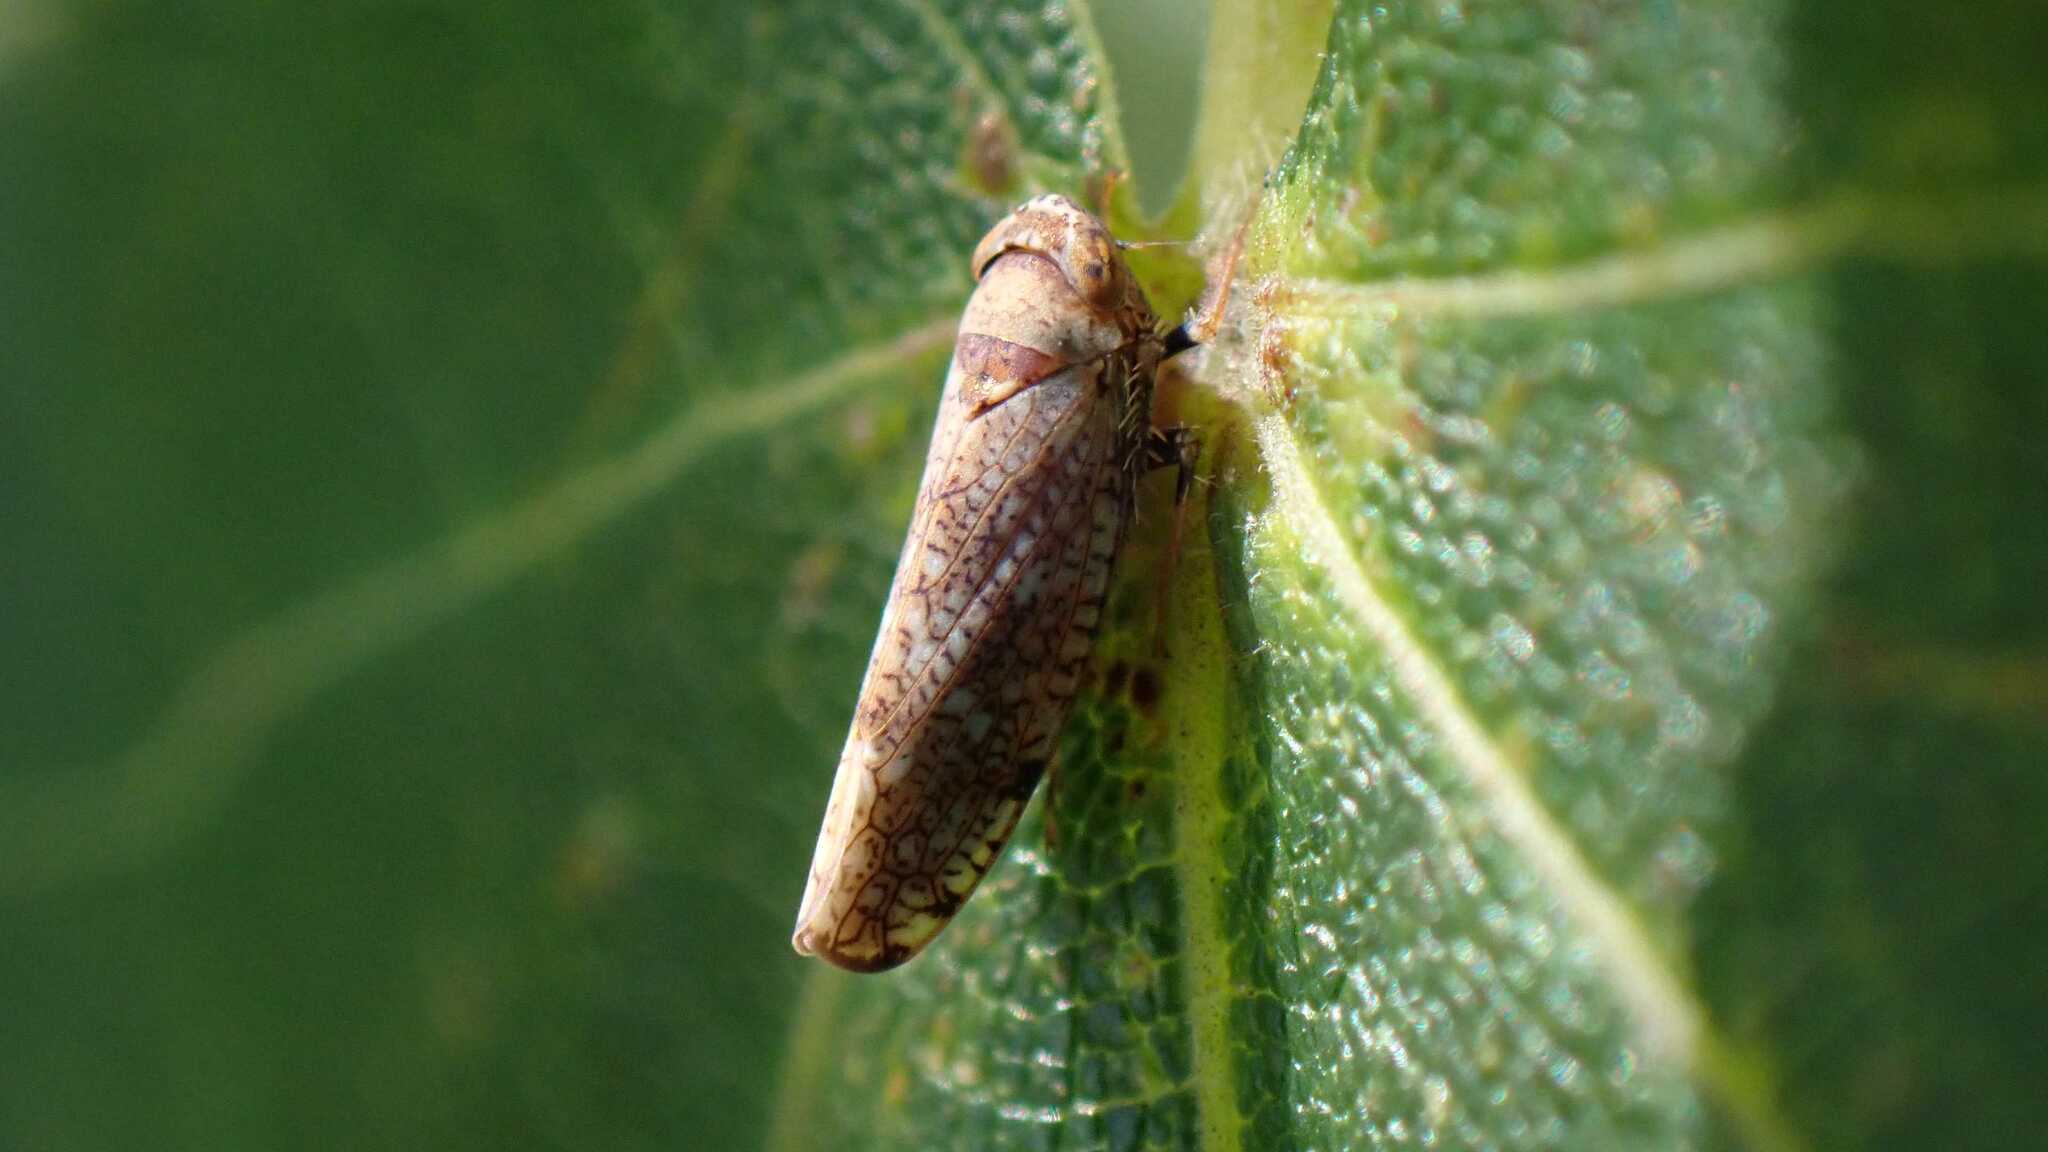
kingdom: Animalia
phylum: Arthropoda
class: Insecta
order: Hemiptera
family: Cicadellidae
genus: Orientus
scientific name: Orientus ishidae
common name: Japanese leafhopper
